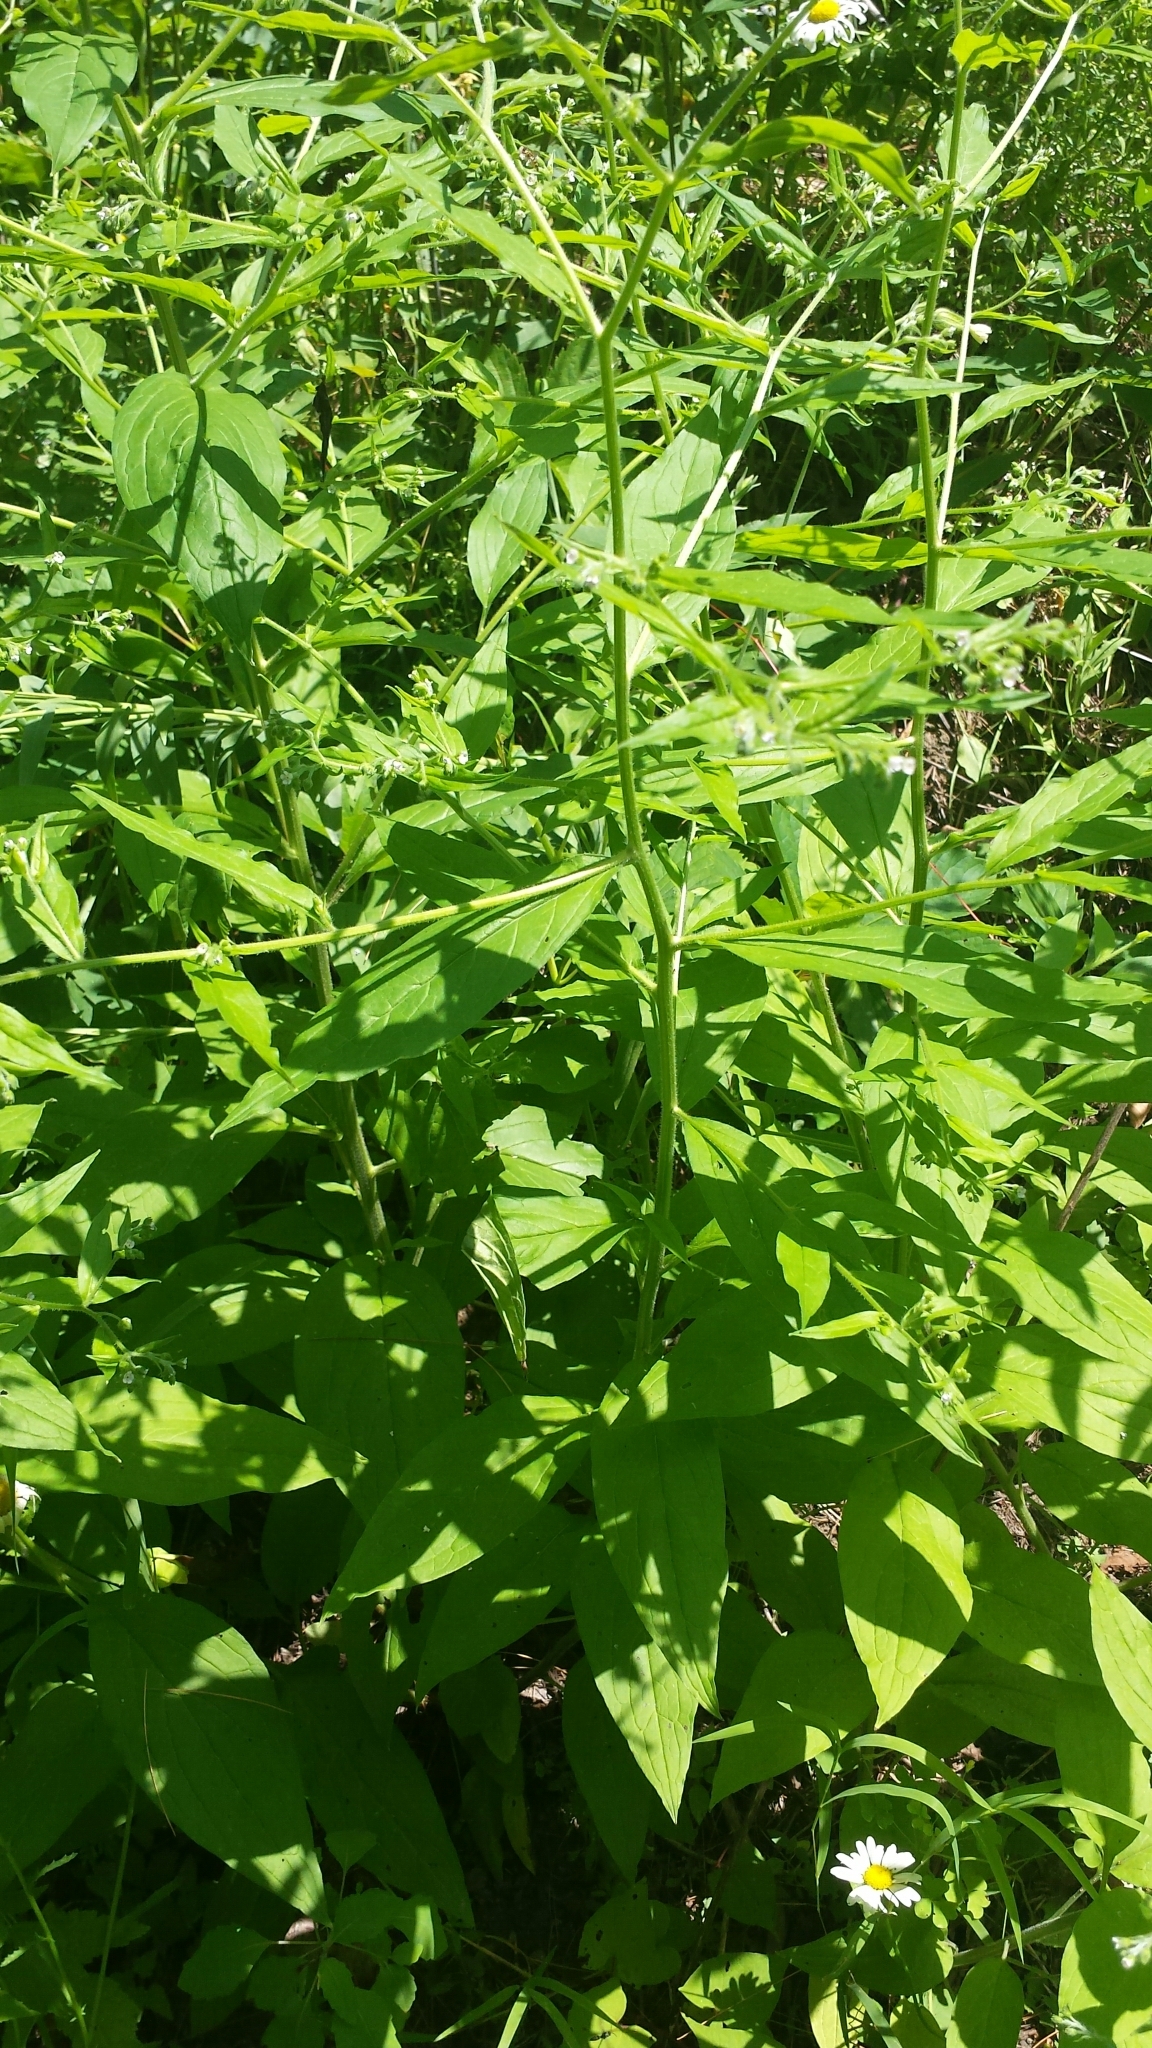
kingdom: Plantae
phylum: Tracheophyta
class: Magnoliopsida
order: Boraginales
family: Boraginaceae
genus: Hackelia
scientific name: Hackelia virginiana
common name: Beggar's-lice
